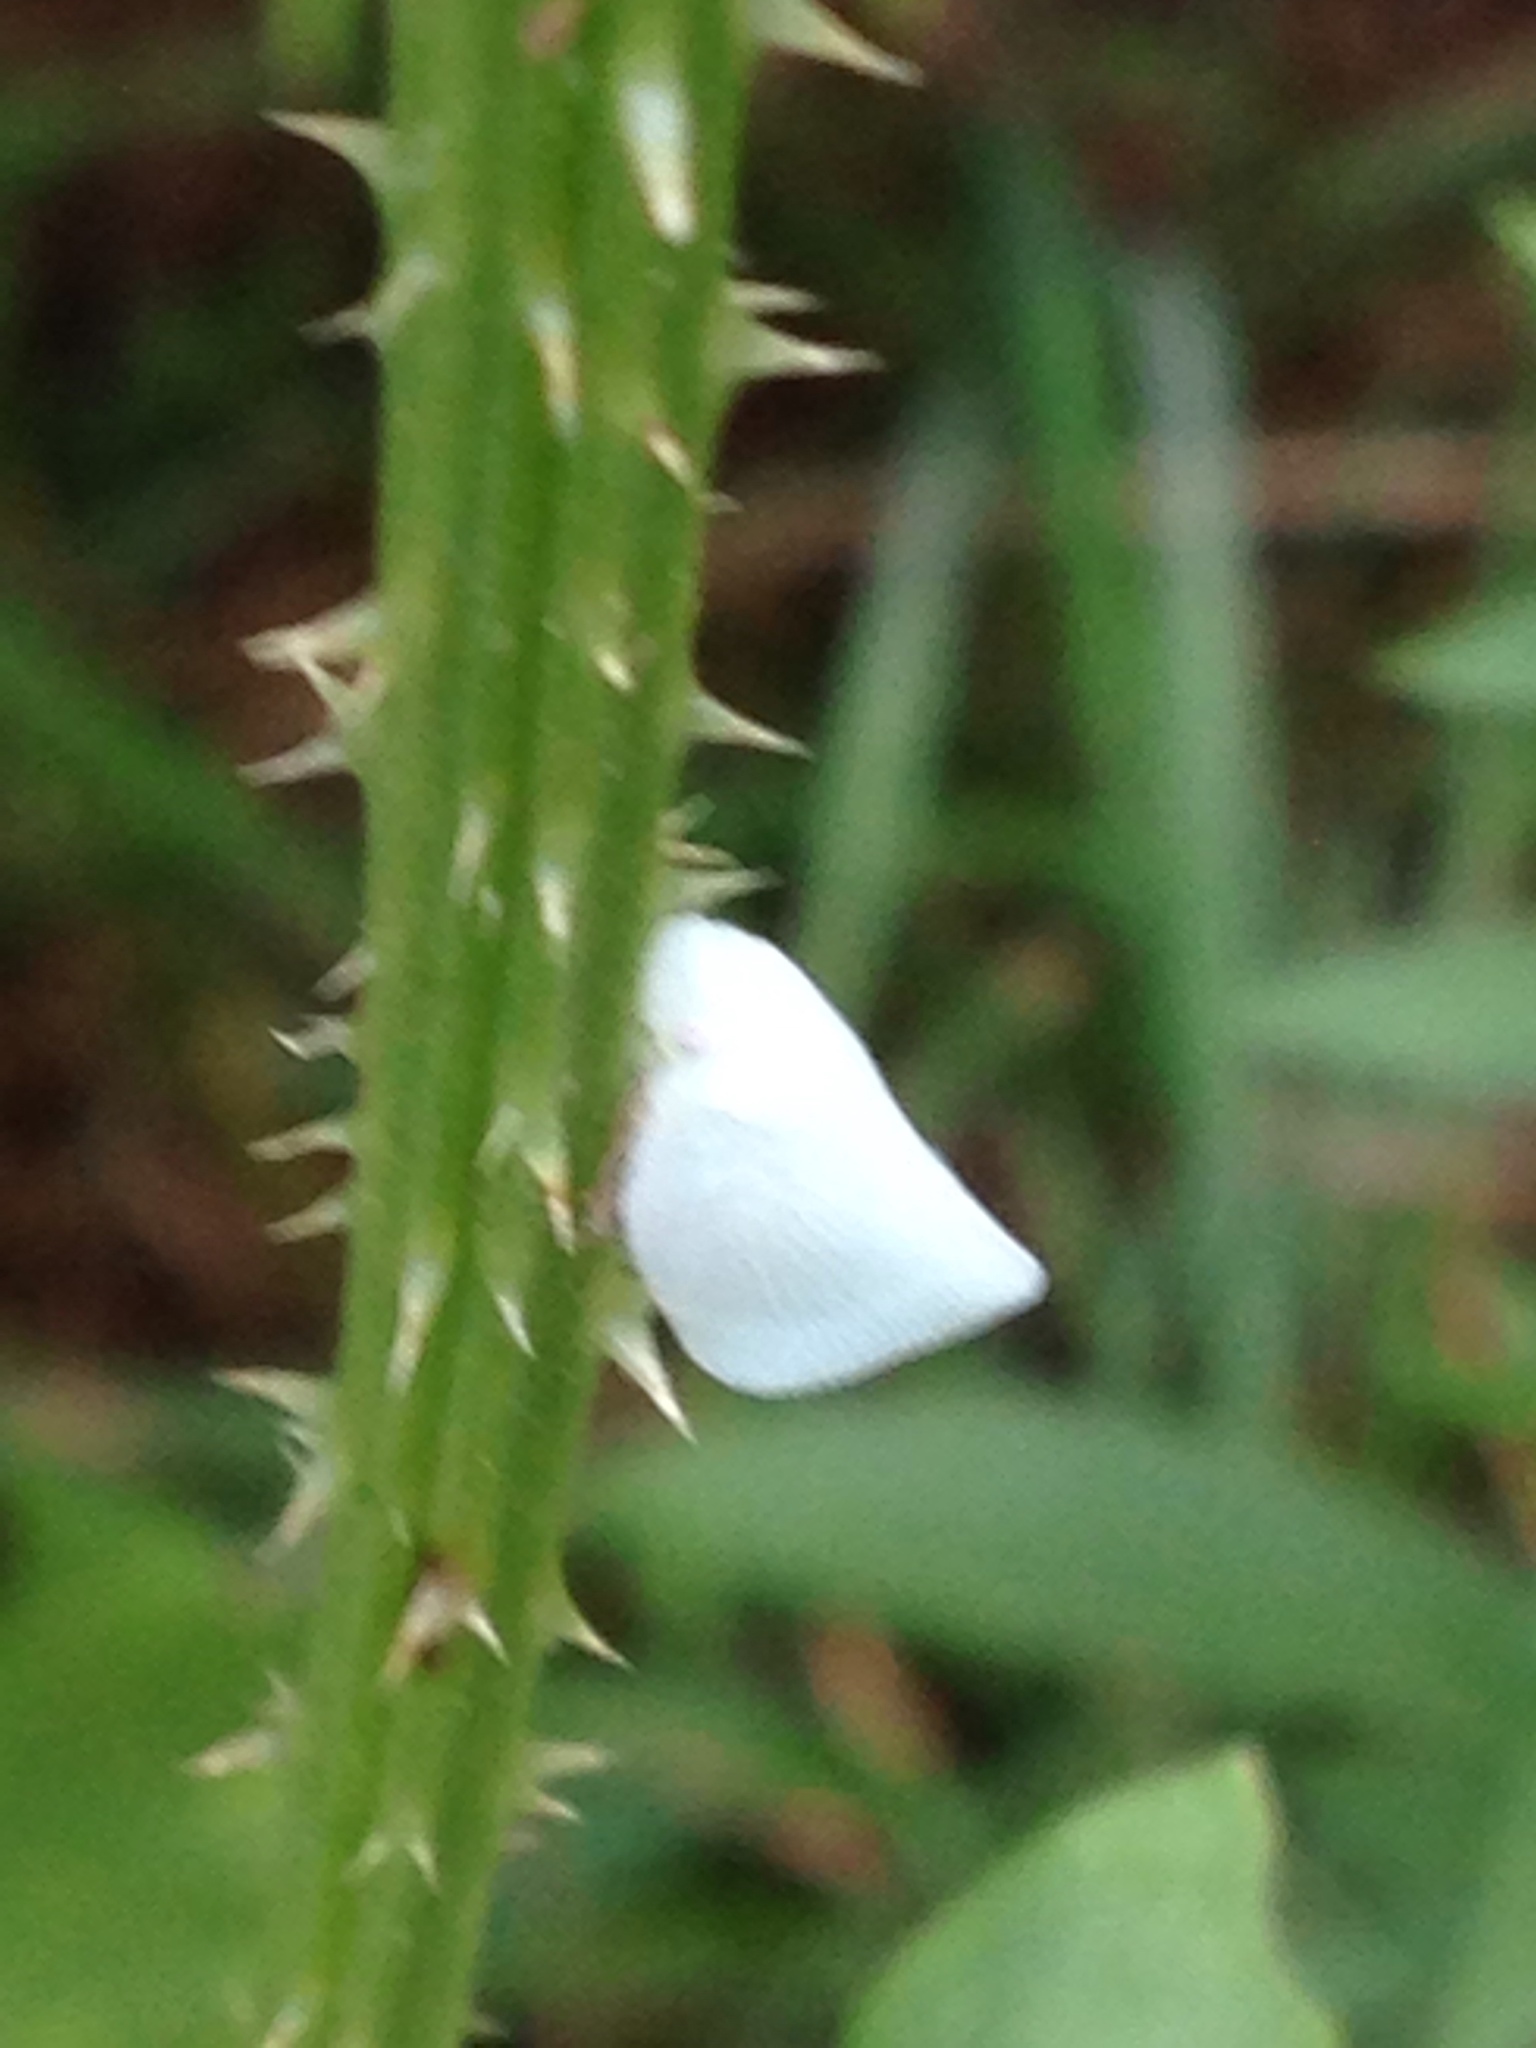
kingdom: Animalia
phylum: Arthropoda
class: Insecta
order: Hemiptera
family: Flatidae
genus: Flatormenis
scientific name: Flatormenis proxima
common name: Northern flatid planthopper
